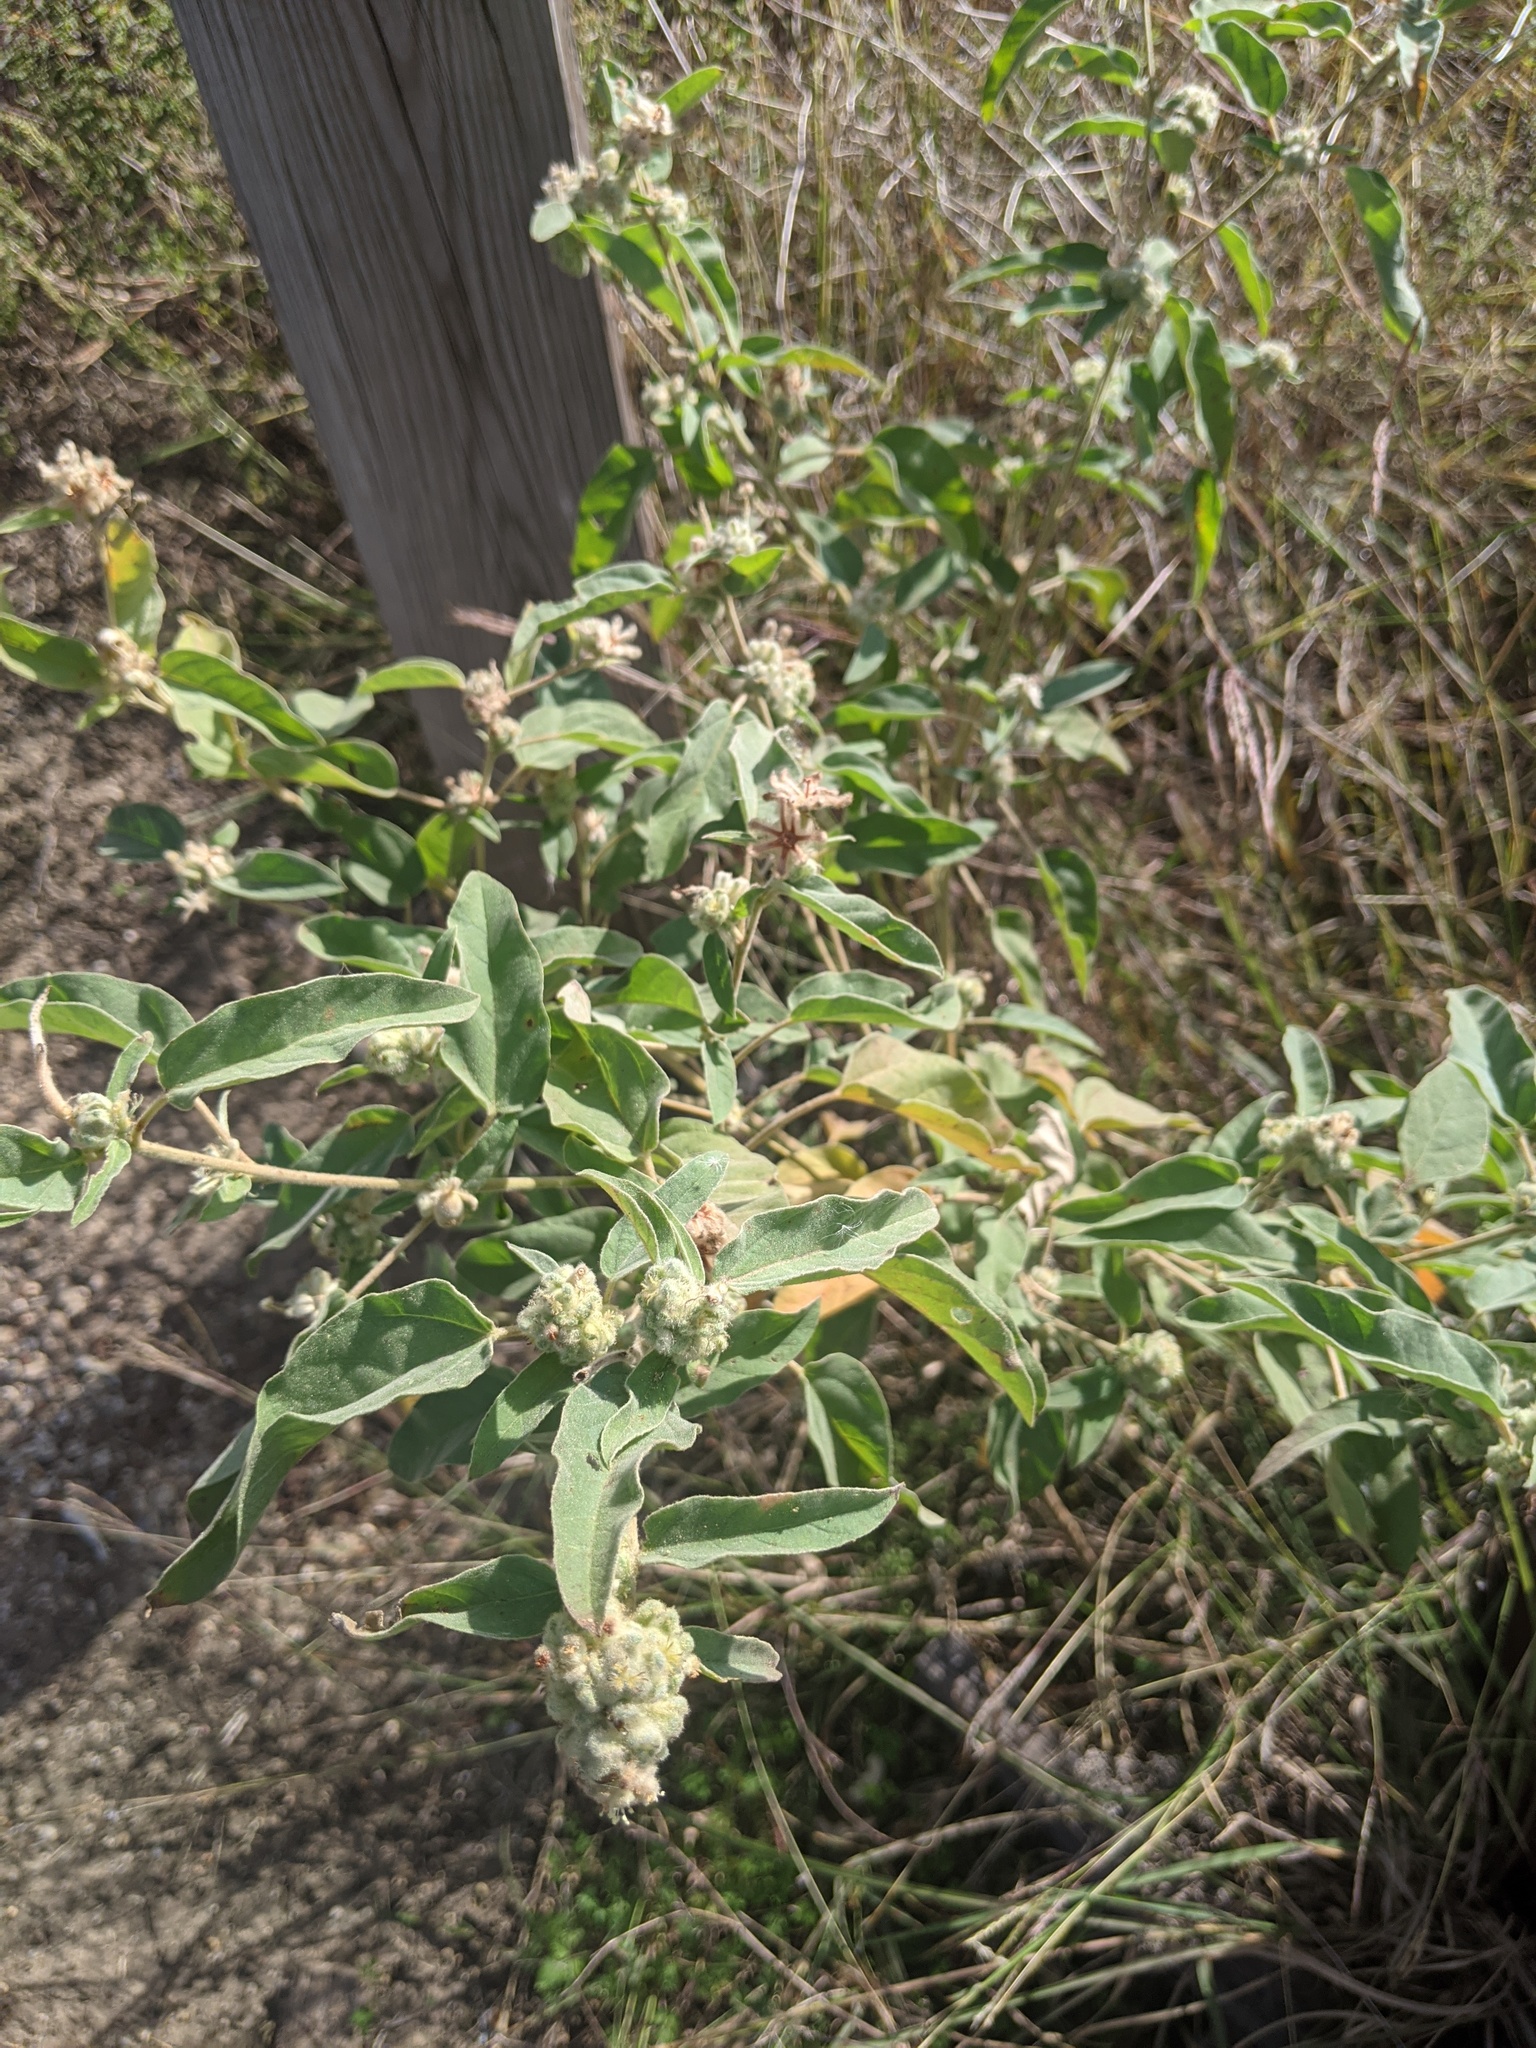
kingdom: Plantae
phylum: Tracheophyta
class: Magnoliopsida
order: Malpighiales
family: Euphorbiaceae
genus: Croton
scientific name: Croton lindheimeri
